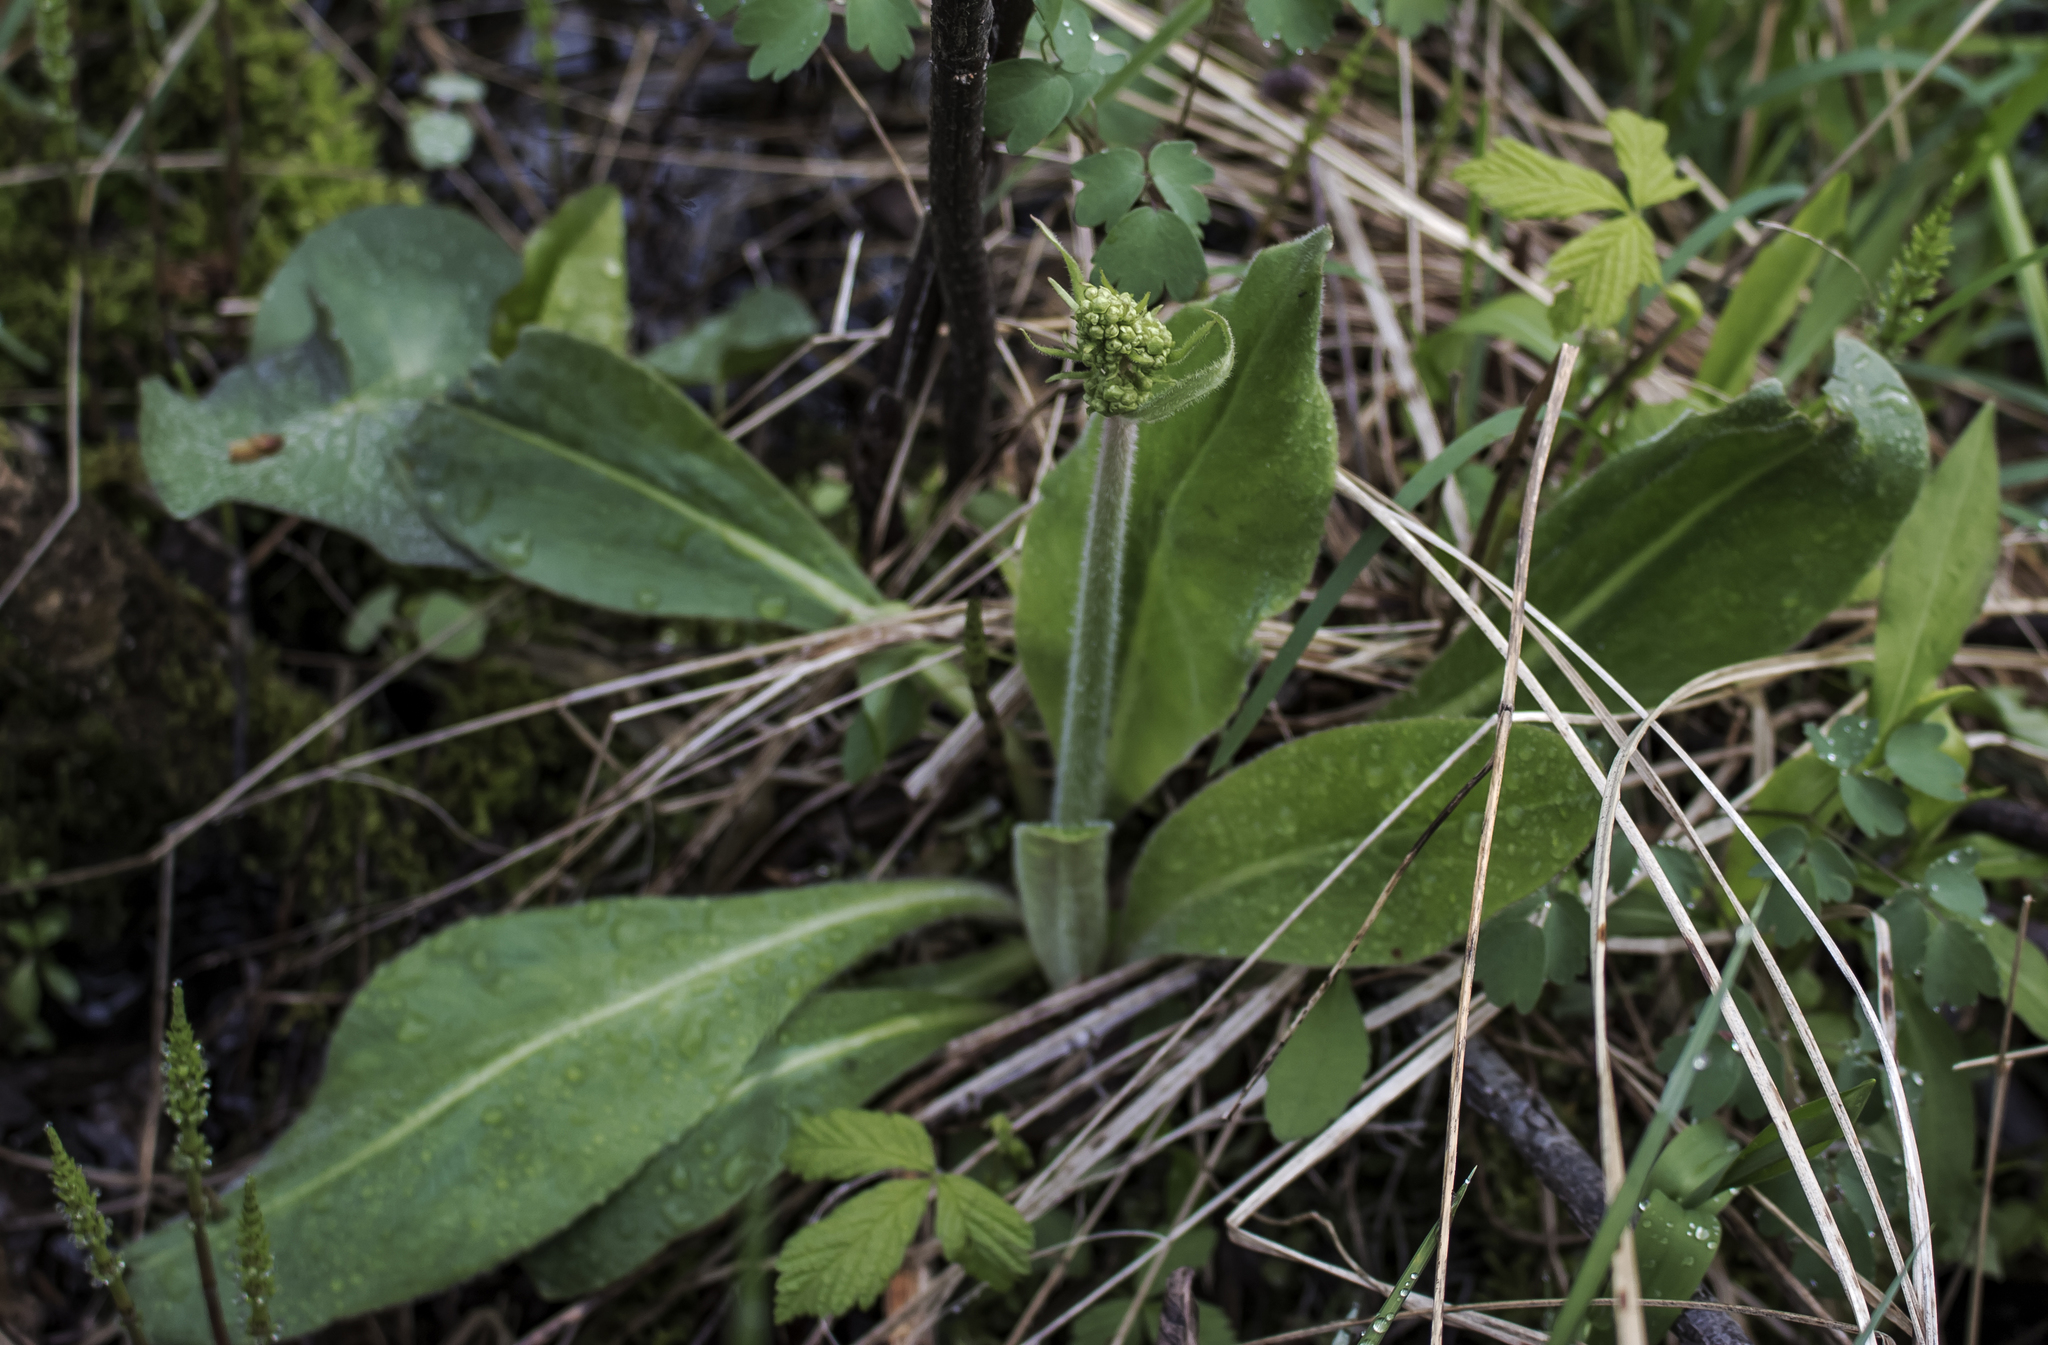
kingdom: Plantae
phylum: Tracheophyta
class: Magnoliopsida
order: Saxifragales
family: Saxifragaceae
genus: Micranthes
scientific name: Micranthes pensylvanica
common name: Marsh saxifrage
